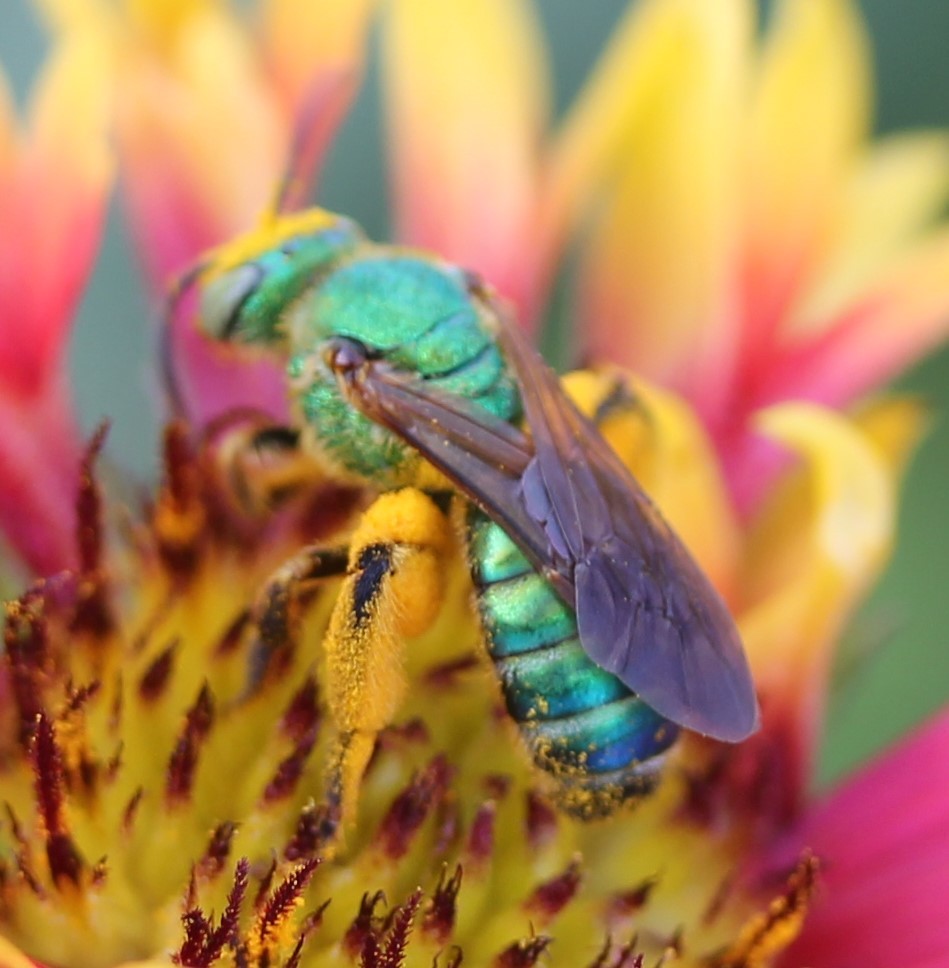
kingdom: Animalia
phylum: Arthropoda
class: Insecta
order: Hymenoptera
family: Halictidae
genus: Agapostemon
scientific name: Agapostemon splendens
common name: Brown-winged striped sweat bee
